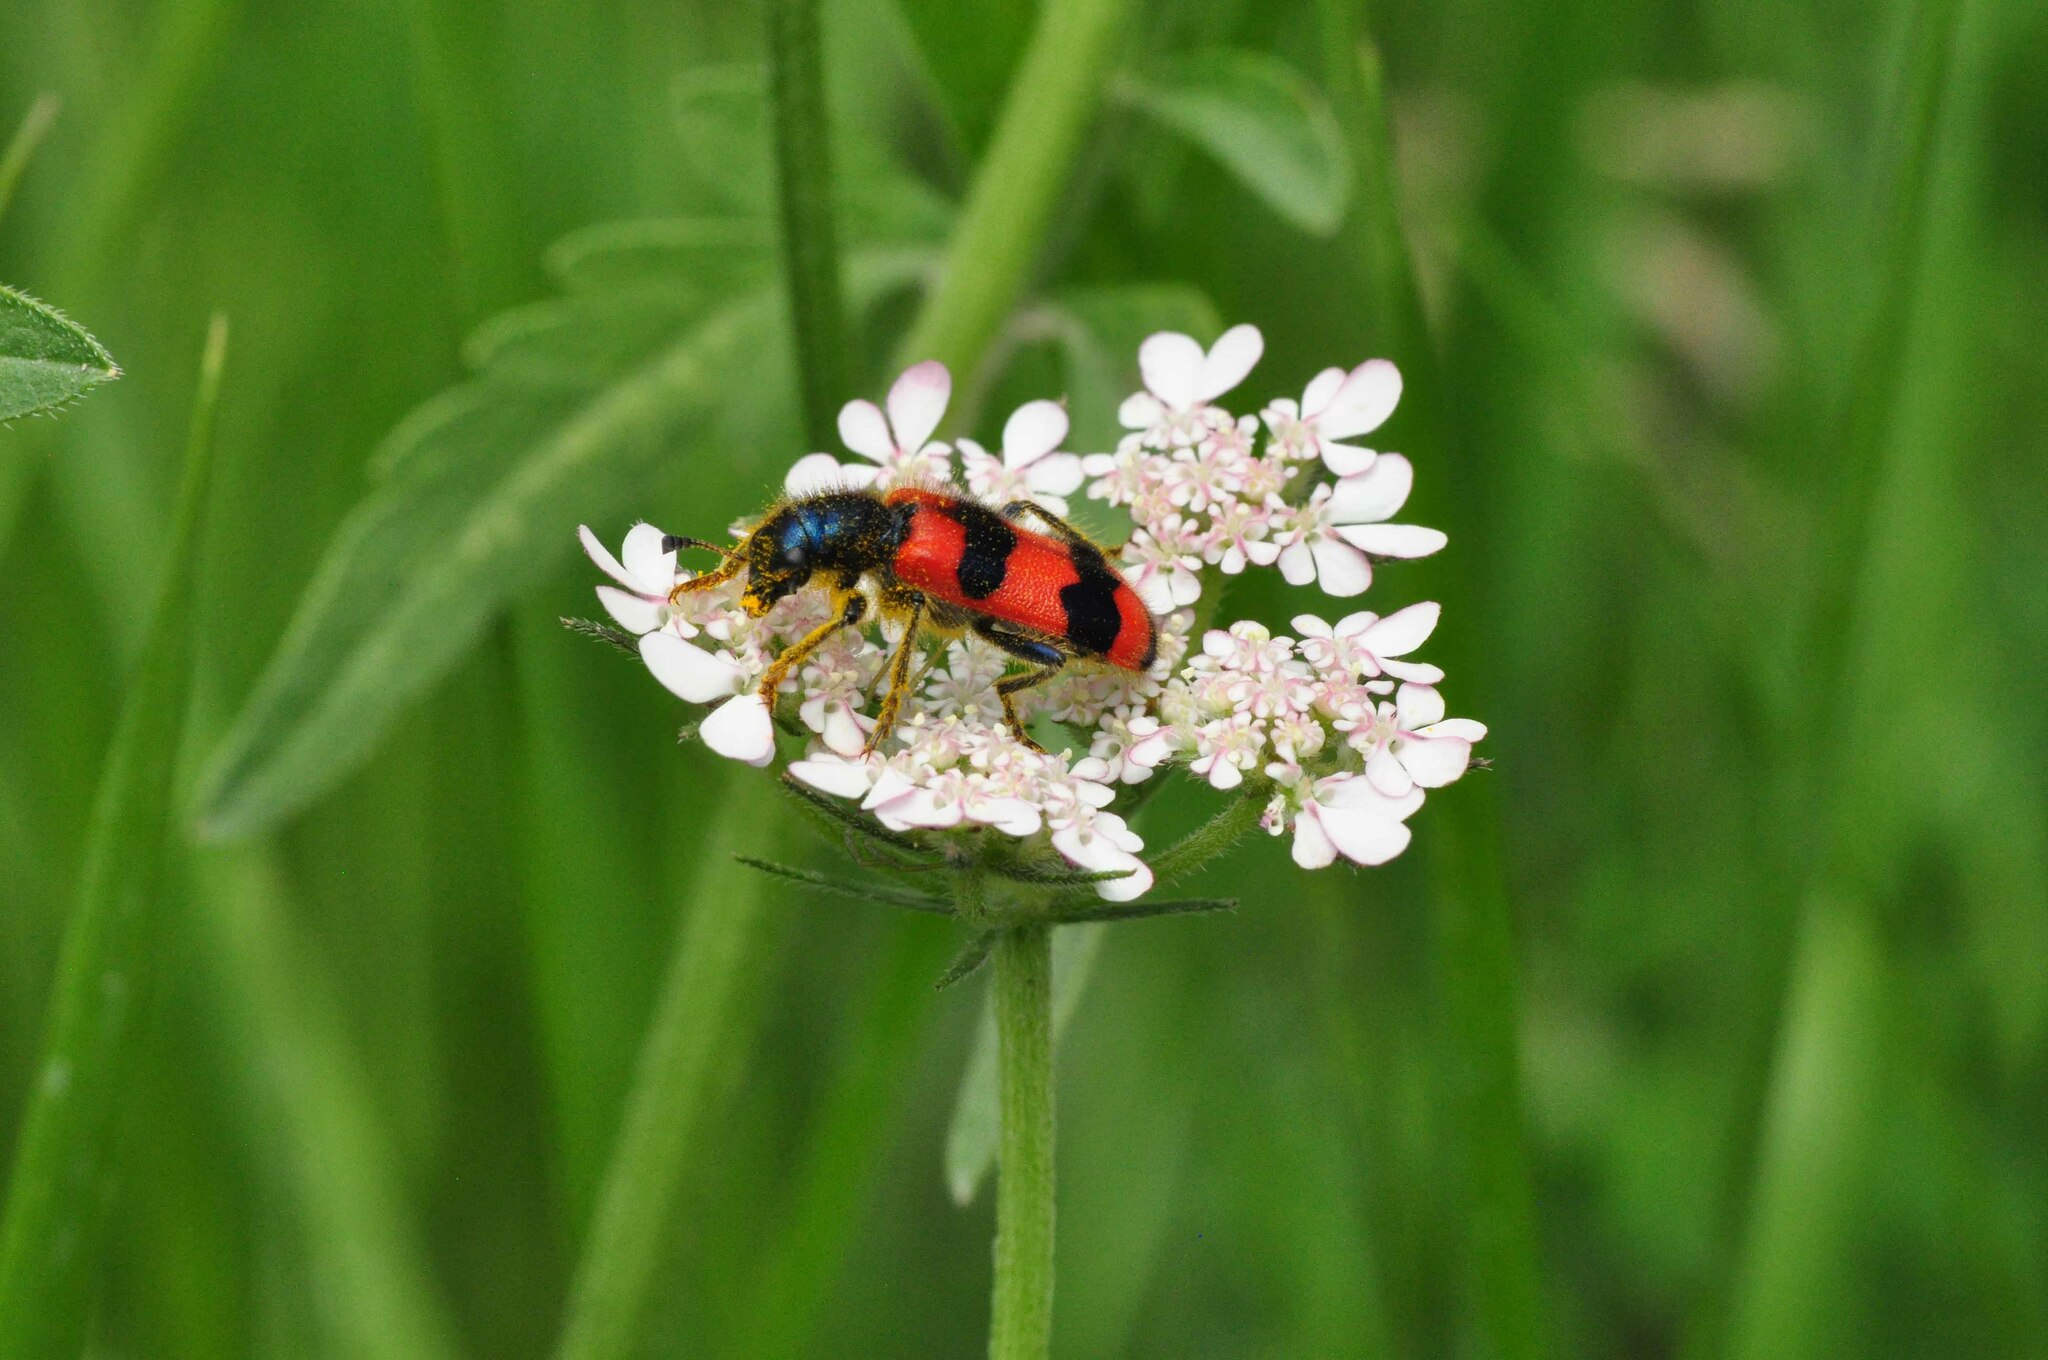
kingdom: Animalia
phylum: Arthropoda
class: Insecta
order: Coleoptera
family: Cleridae
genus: Trichodes
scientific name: Trichodes apiarius
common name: Bee-eating beetle
